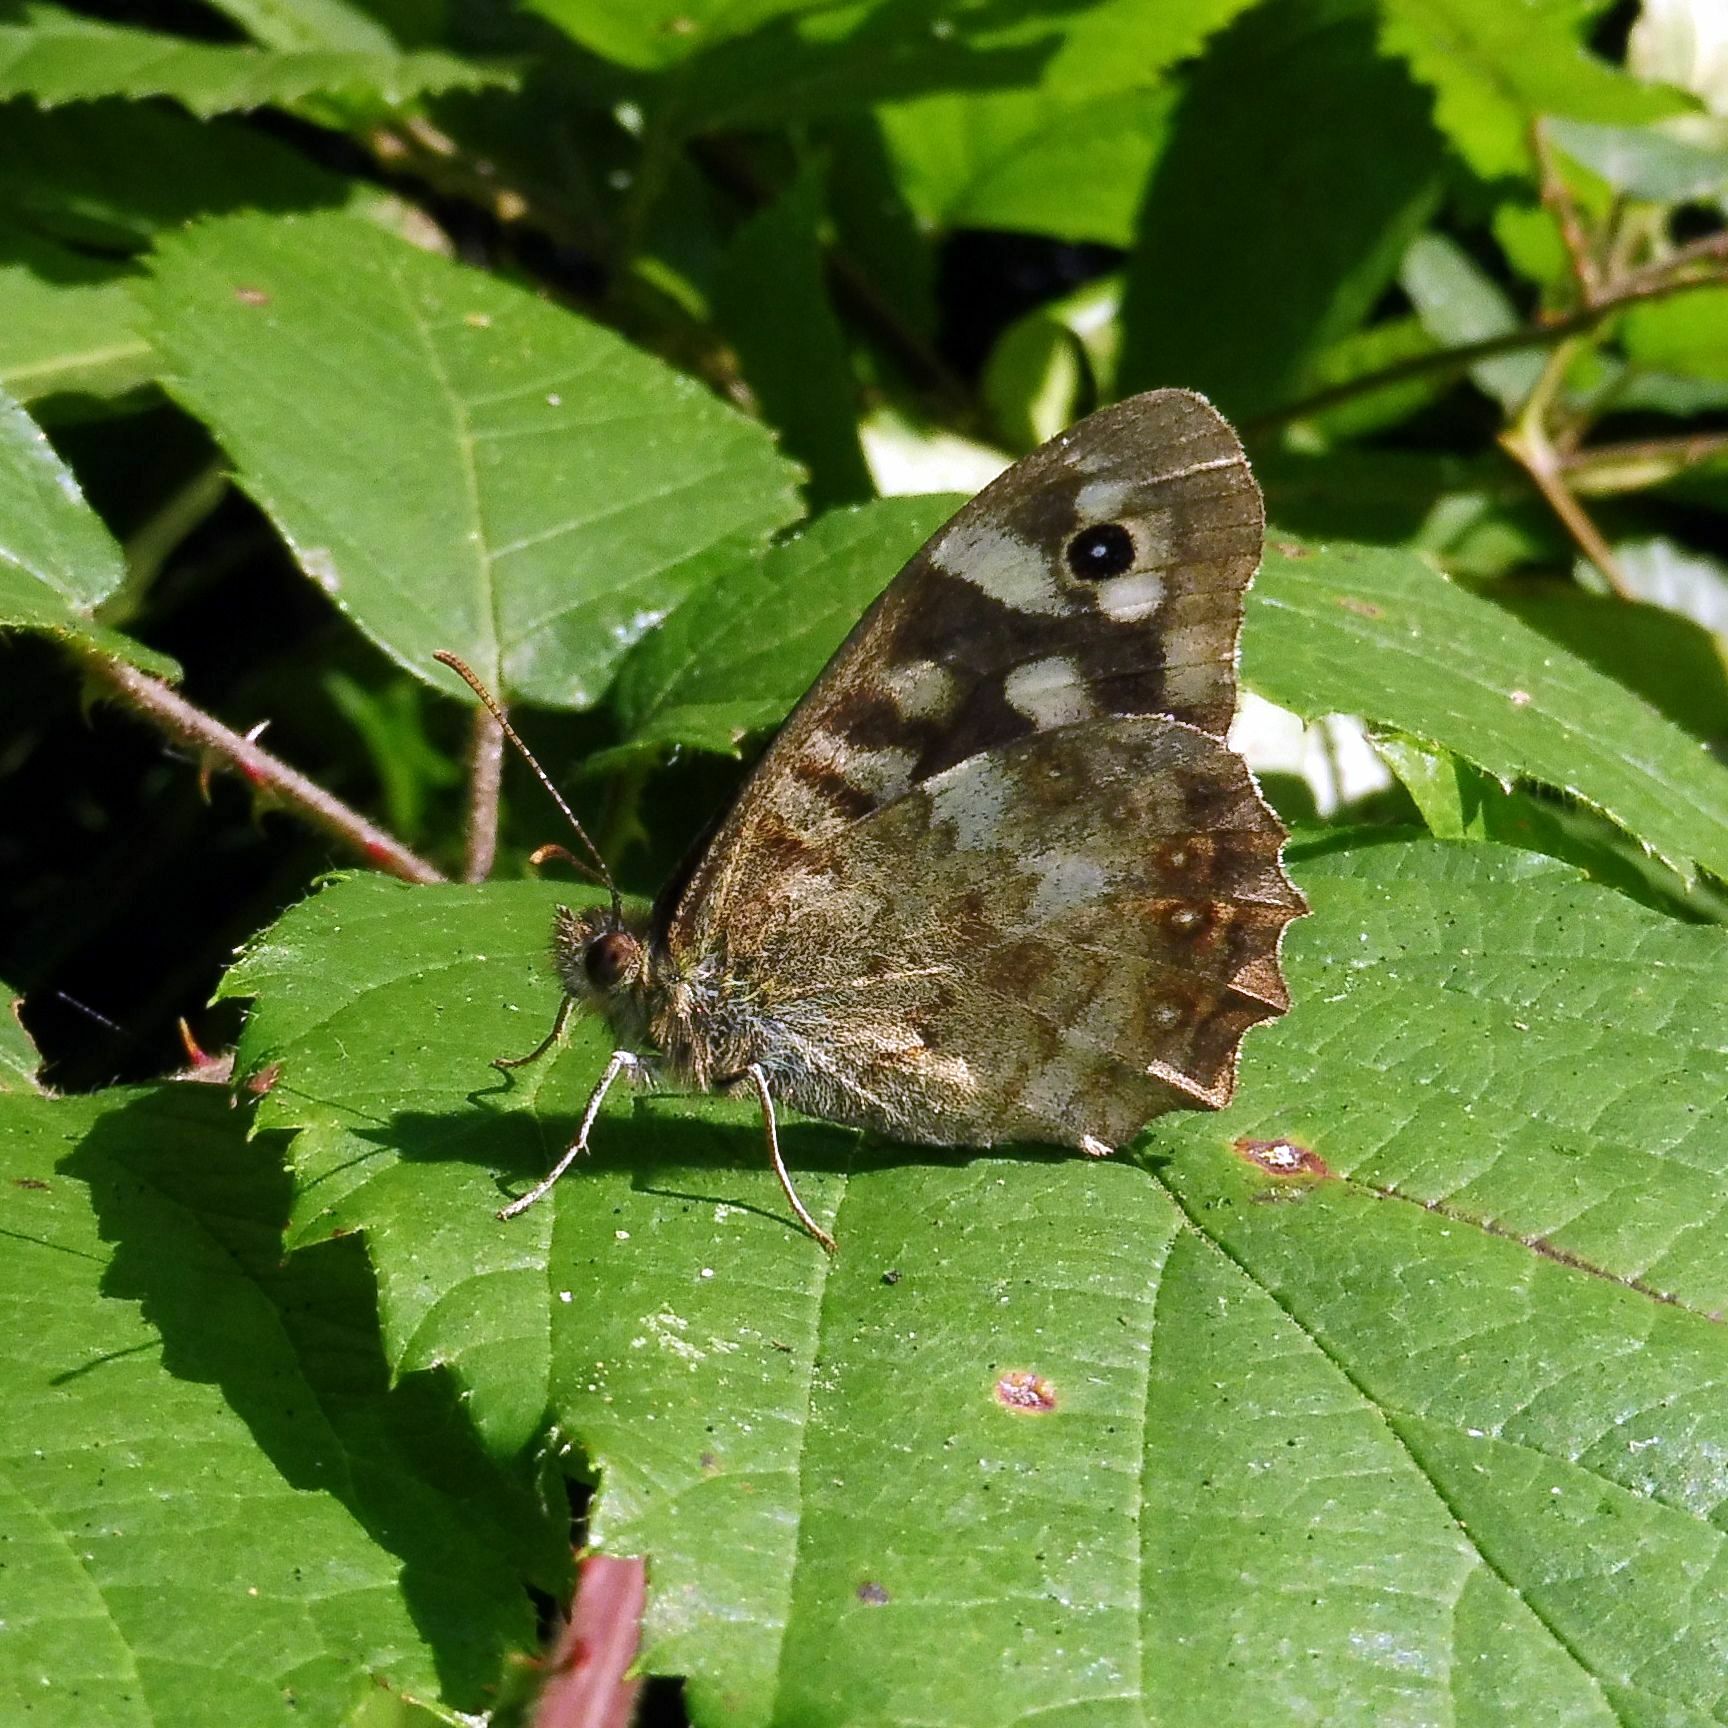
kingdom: Animalia
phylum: Arthropoda
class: Insecta
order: Lepidoptera
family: Nymphalidae
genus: Pararge
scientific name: Pararge aegeria
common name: Speckled wood
